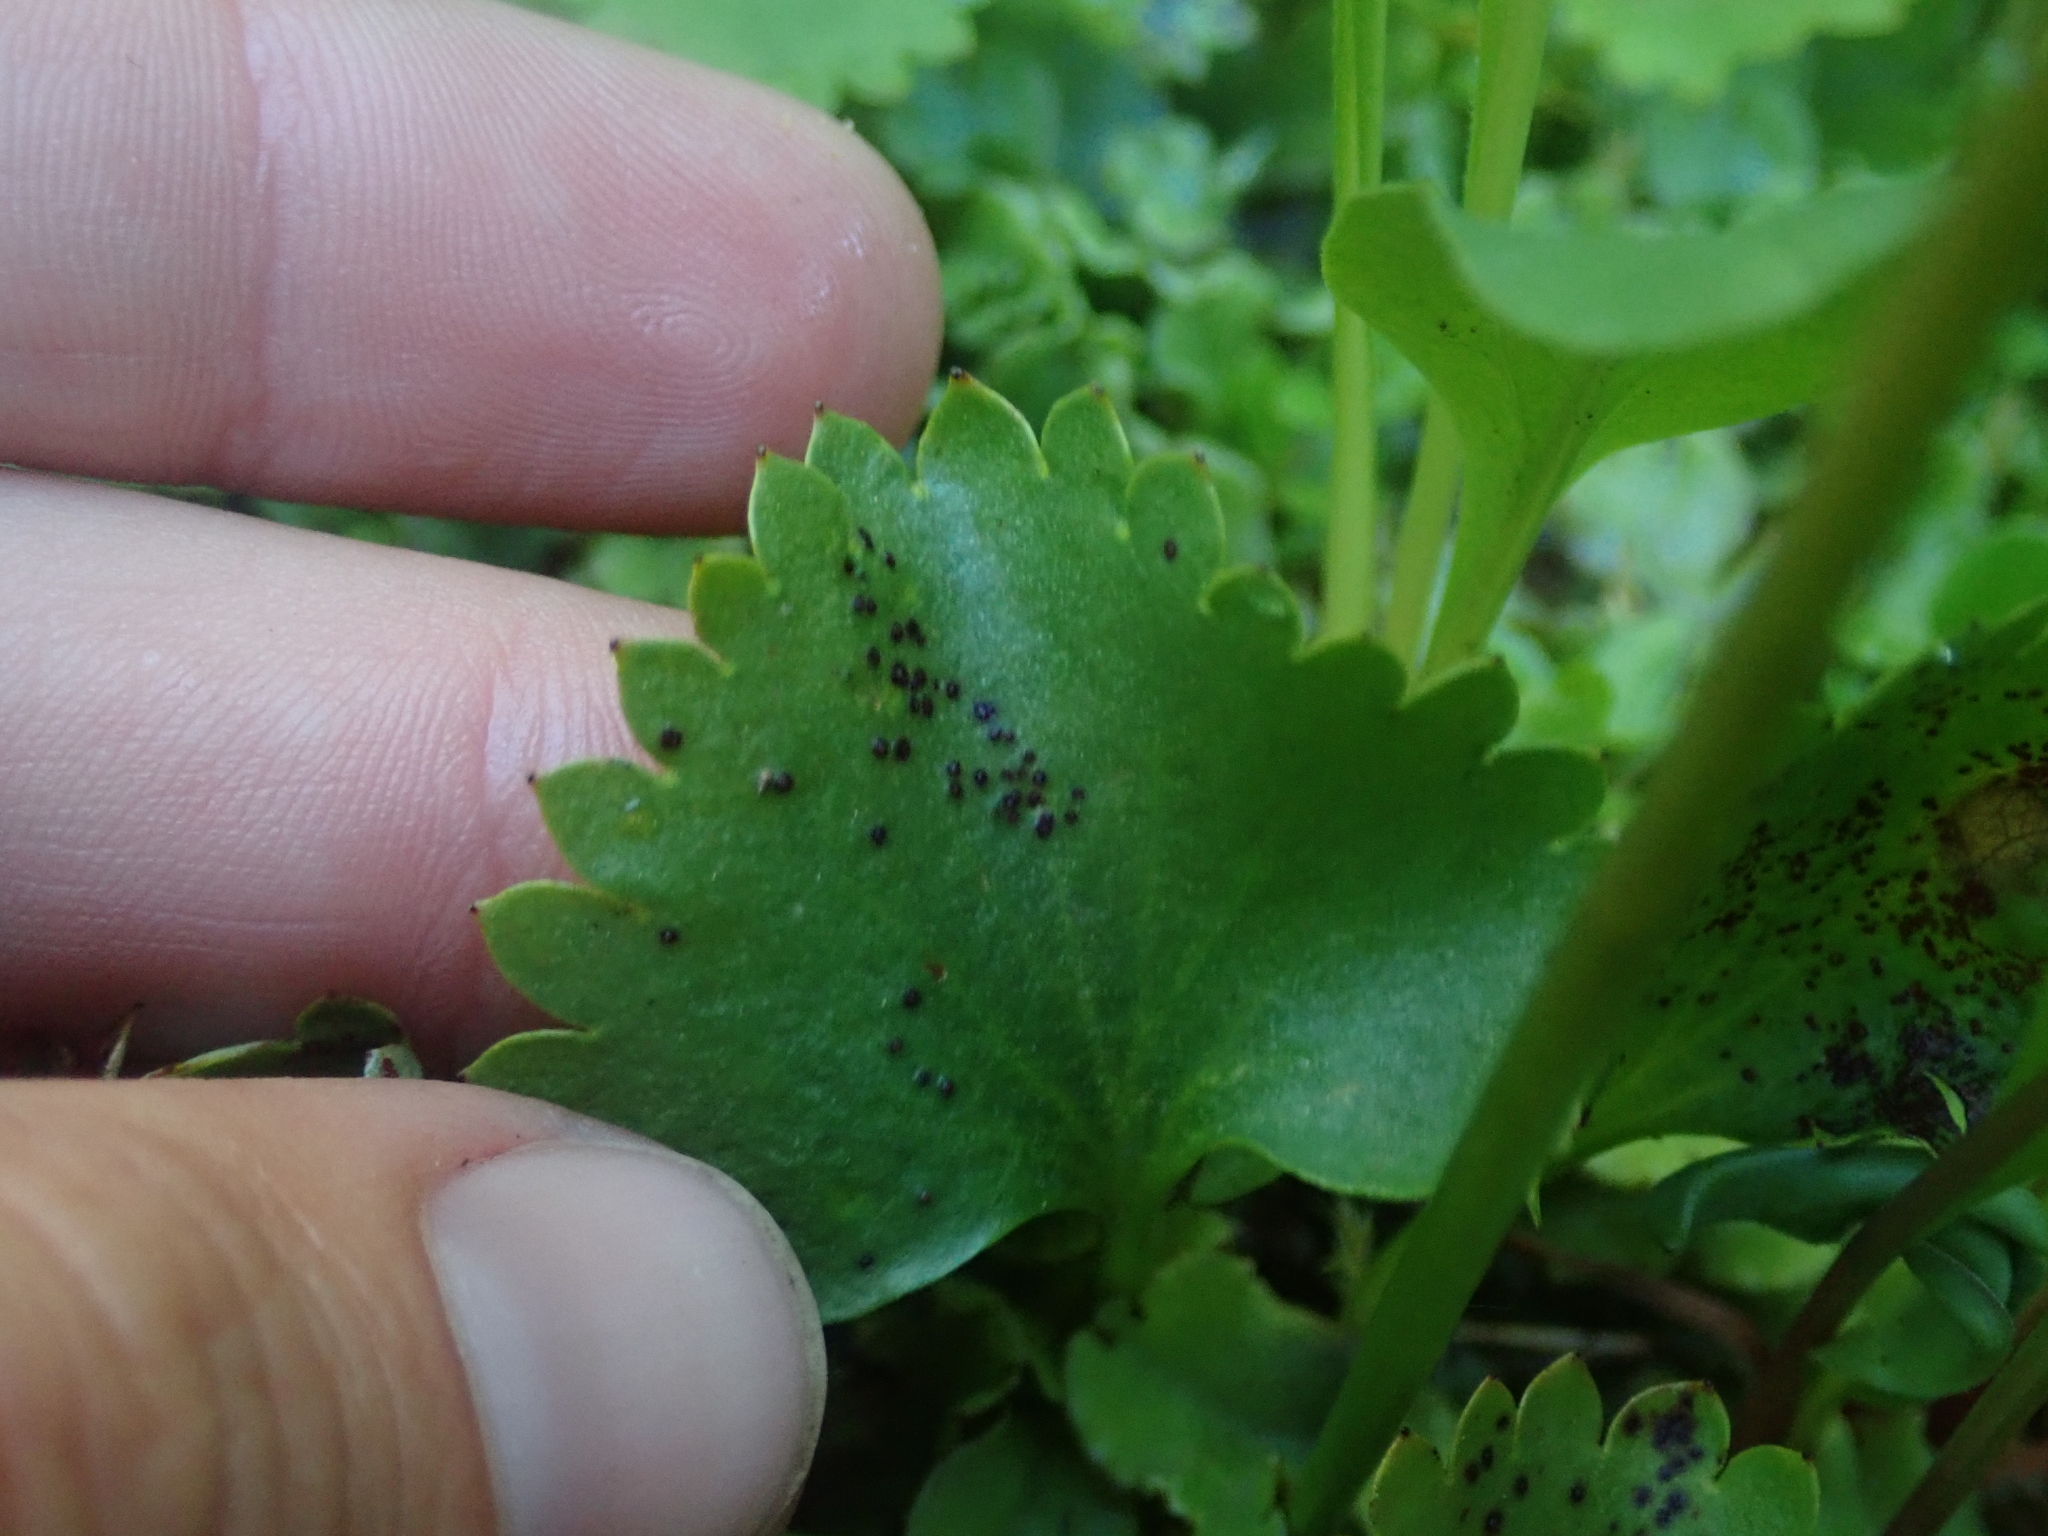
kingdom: Plantae
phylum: Tracheophyta
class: Magnoliopsida
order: Saxifragales
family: Saxifragaceae
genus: Micranthes
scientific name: Micranthes odontoloma
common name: Brook saxifrage
